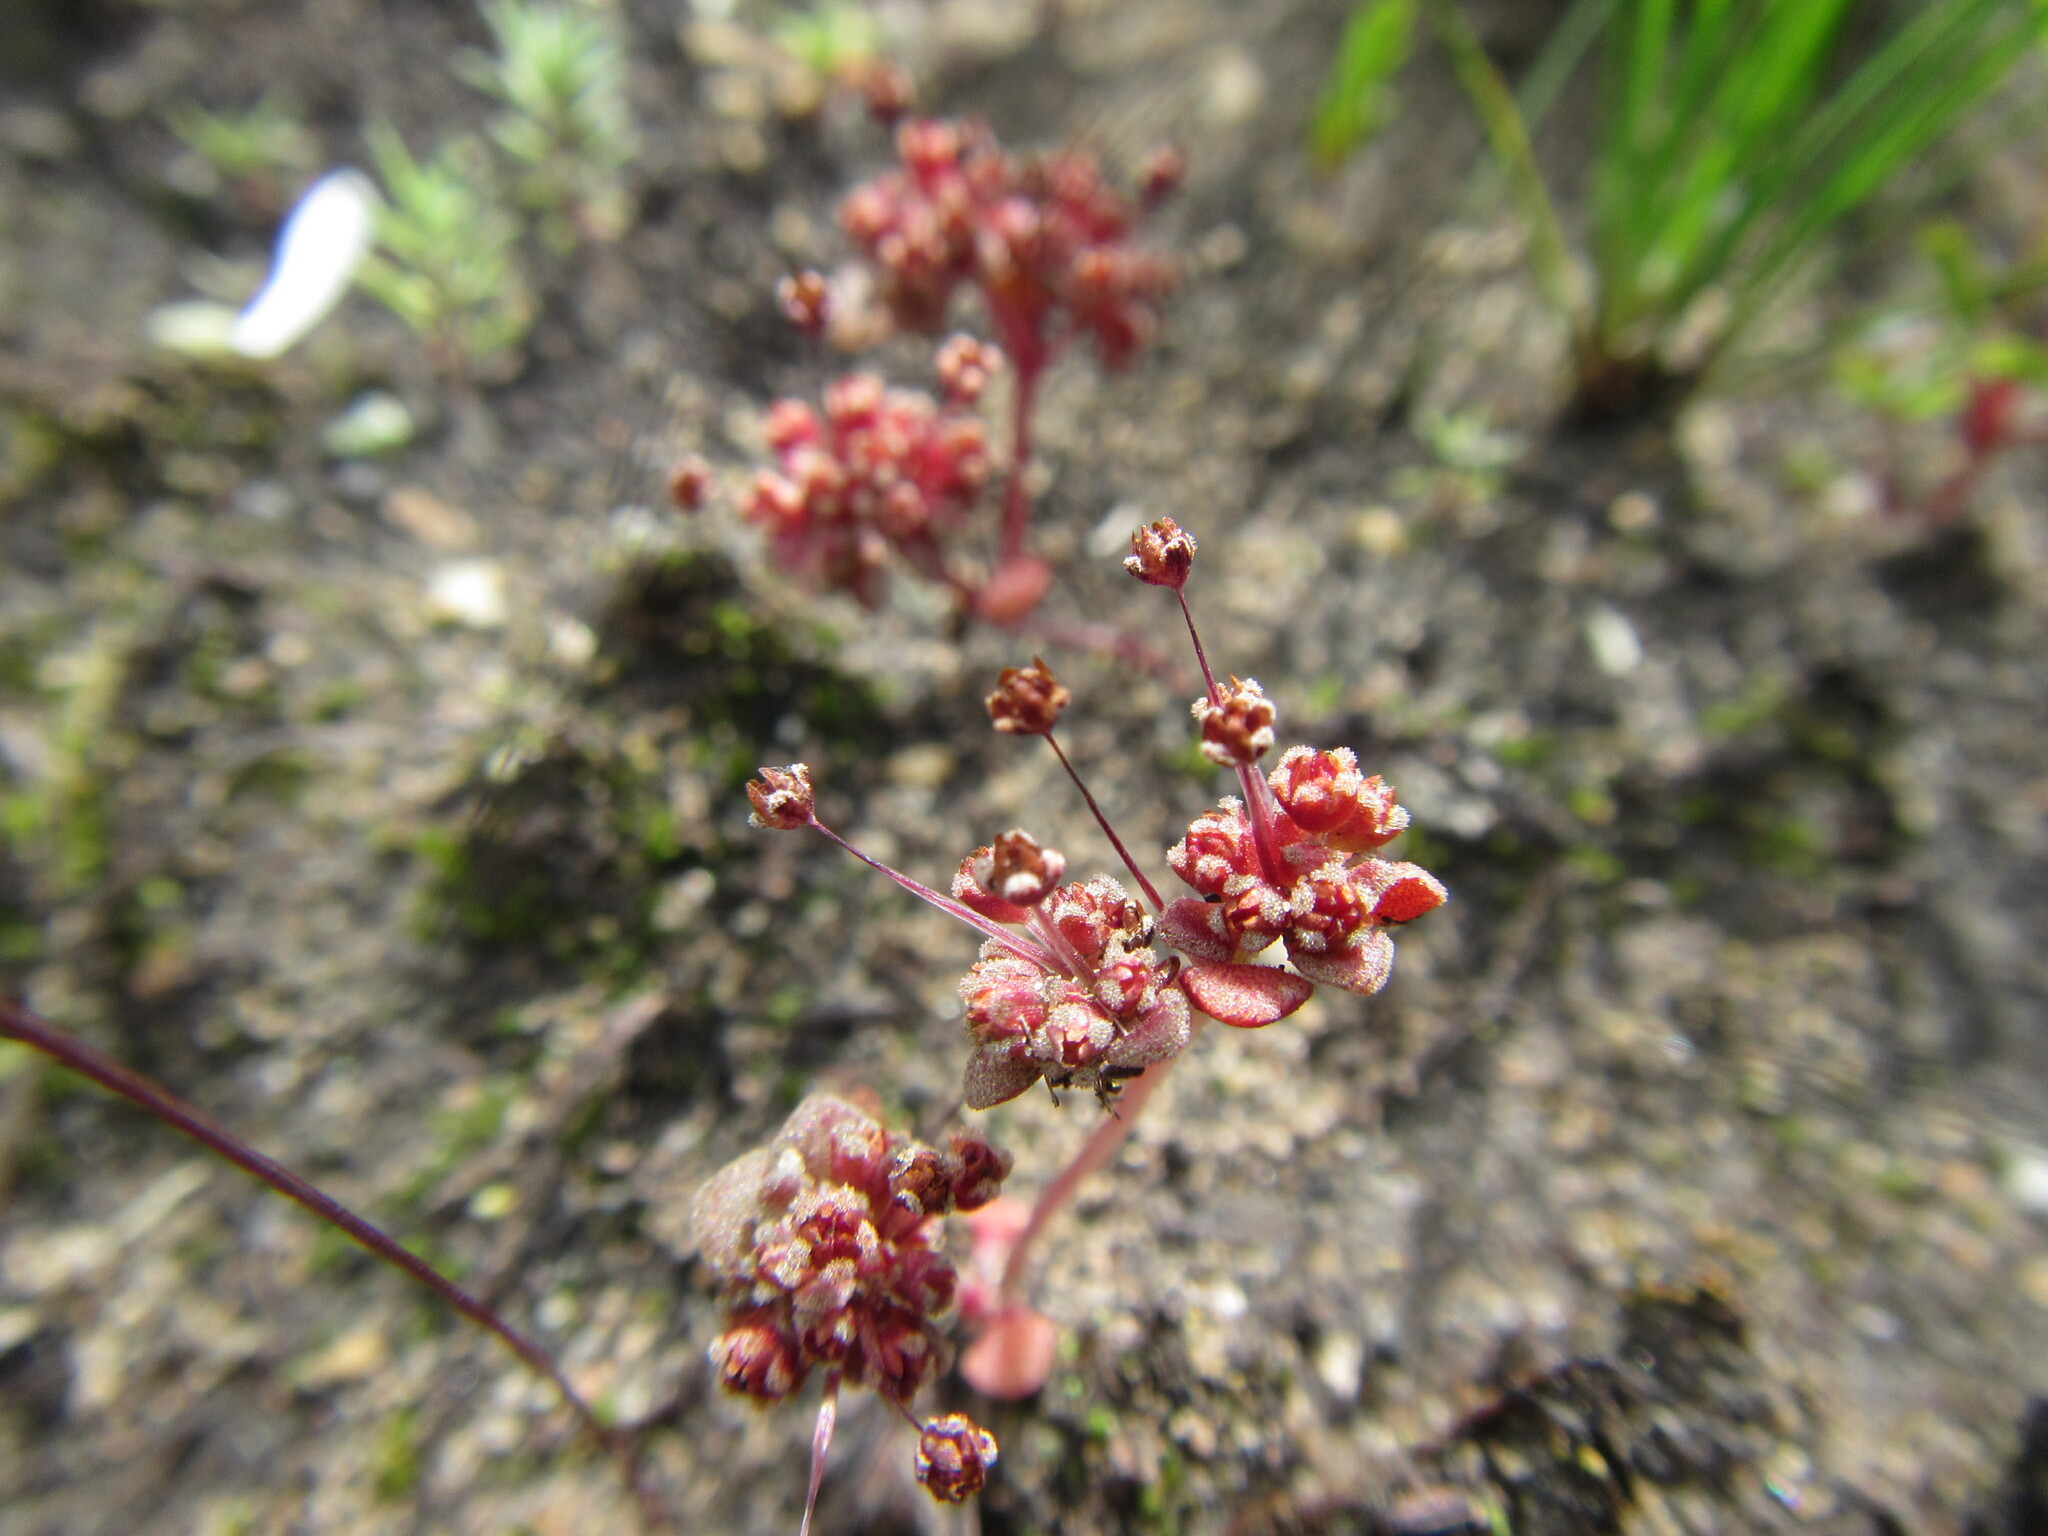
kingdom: Plantae
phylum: Tracheophyta
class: Magnoliopsida
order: Saxifragales
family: Crassulaceae
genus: Crassula
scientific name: Crassula umbellata
